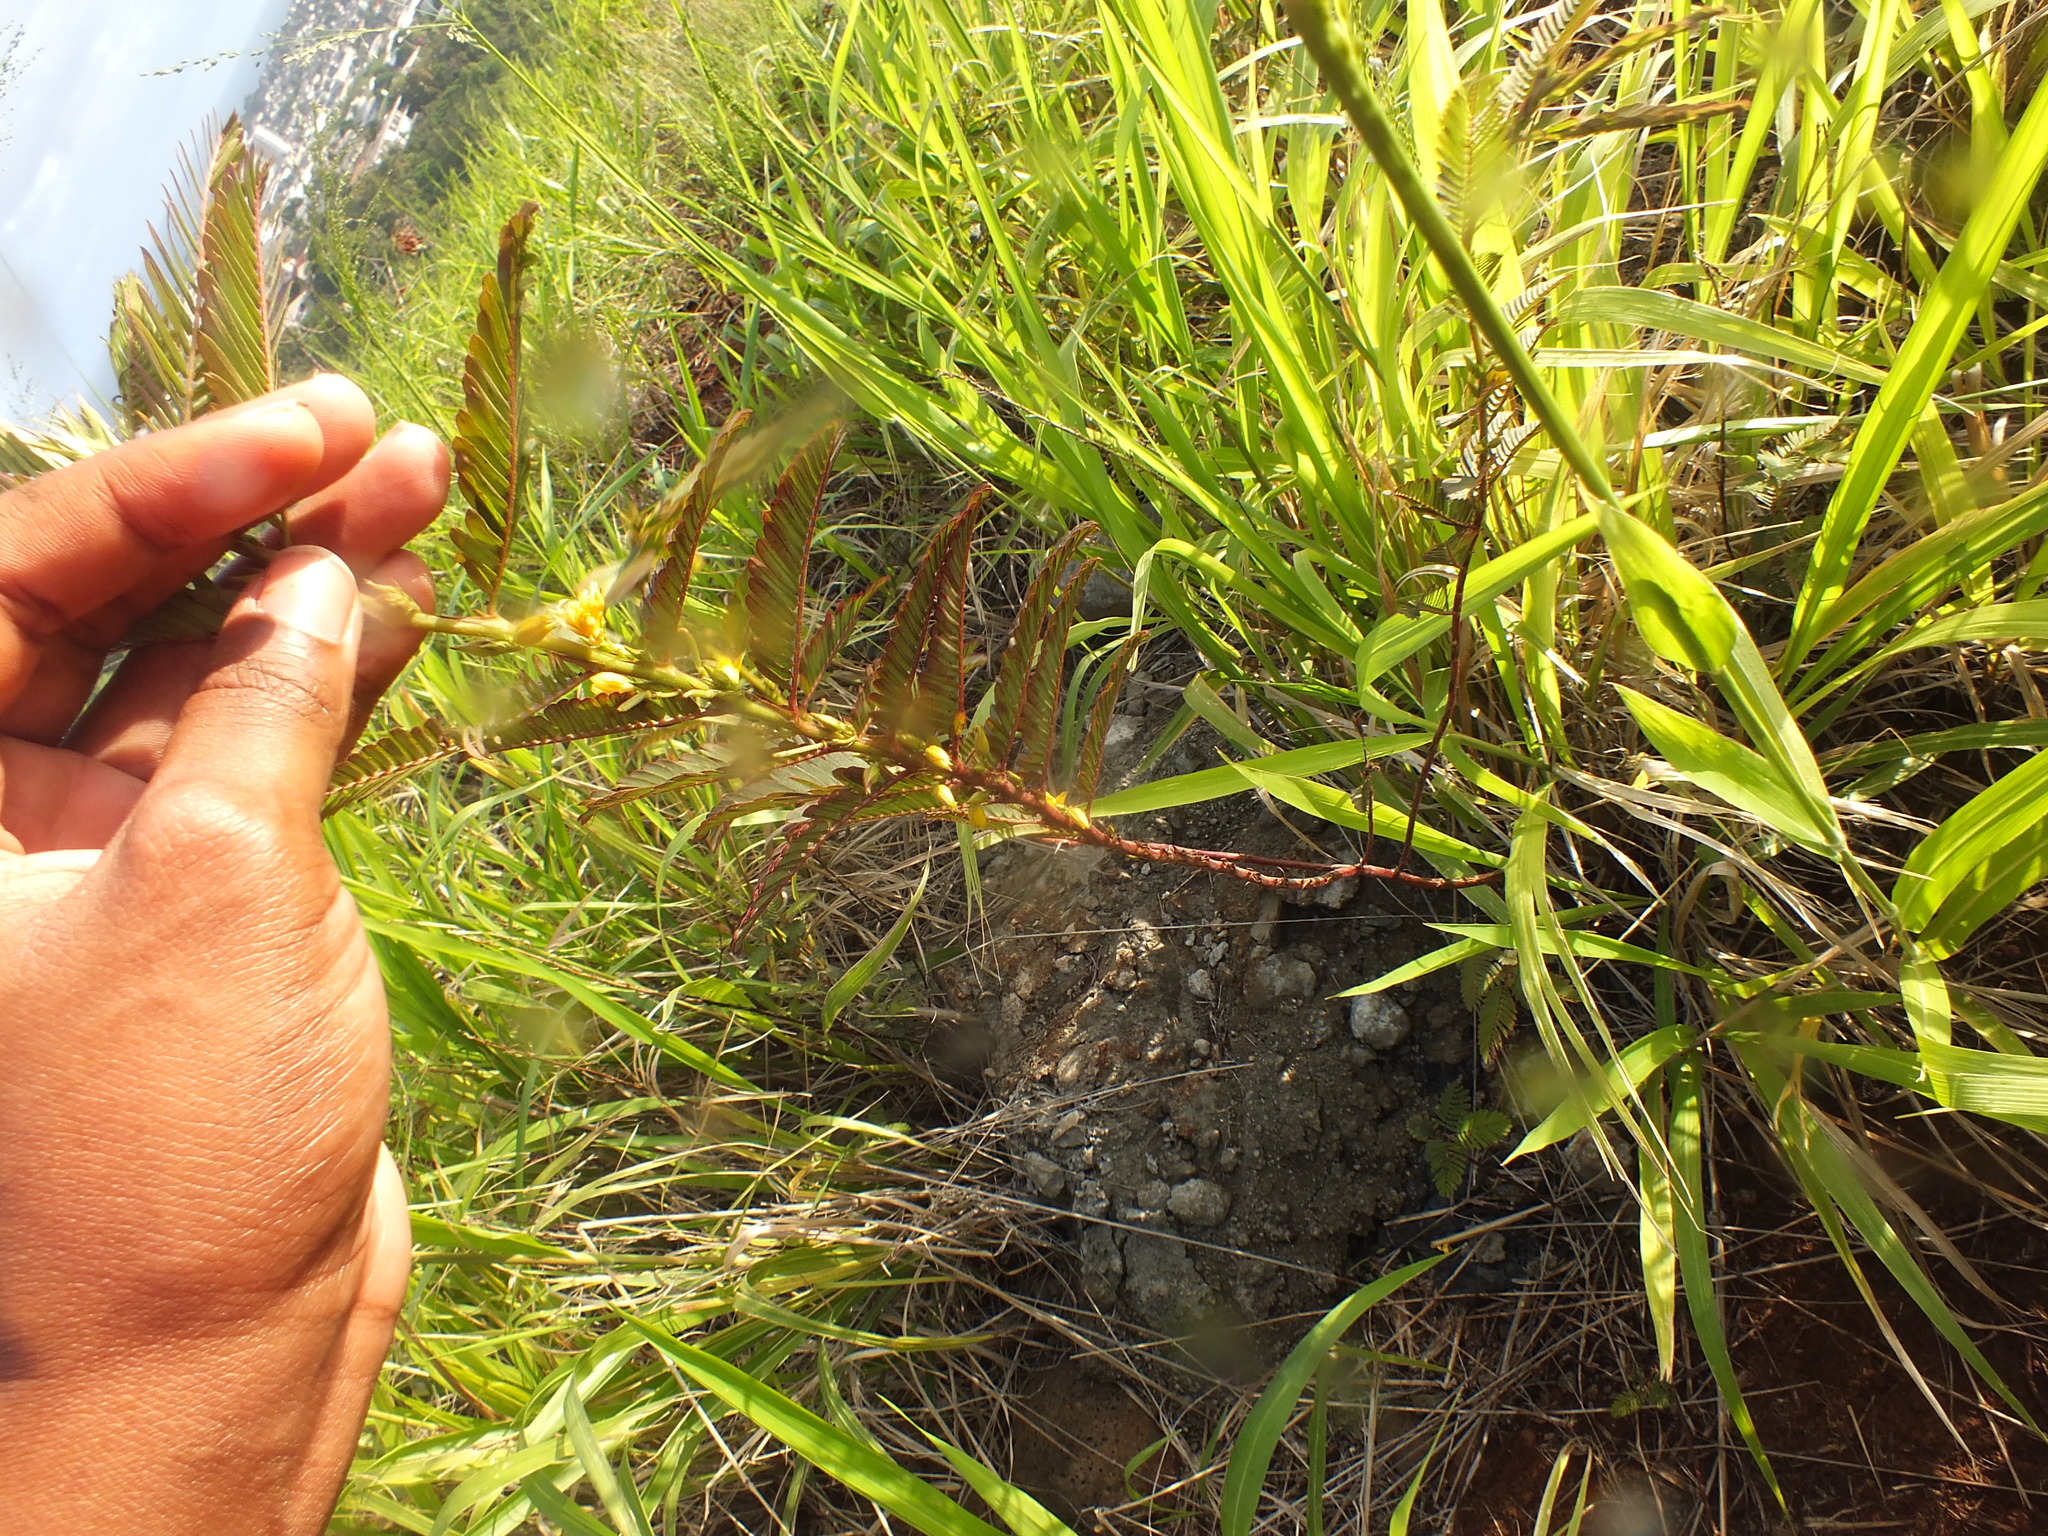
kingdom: Plantae
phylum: Tracheophyta
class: Magnoliopsida
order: Fabales
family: Fabaceae
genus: Chamaecrista
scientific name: Chamaecrista nictitans
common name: Sensitive cassia
